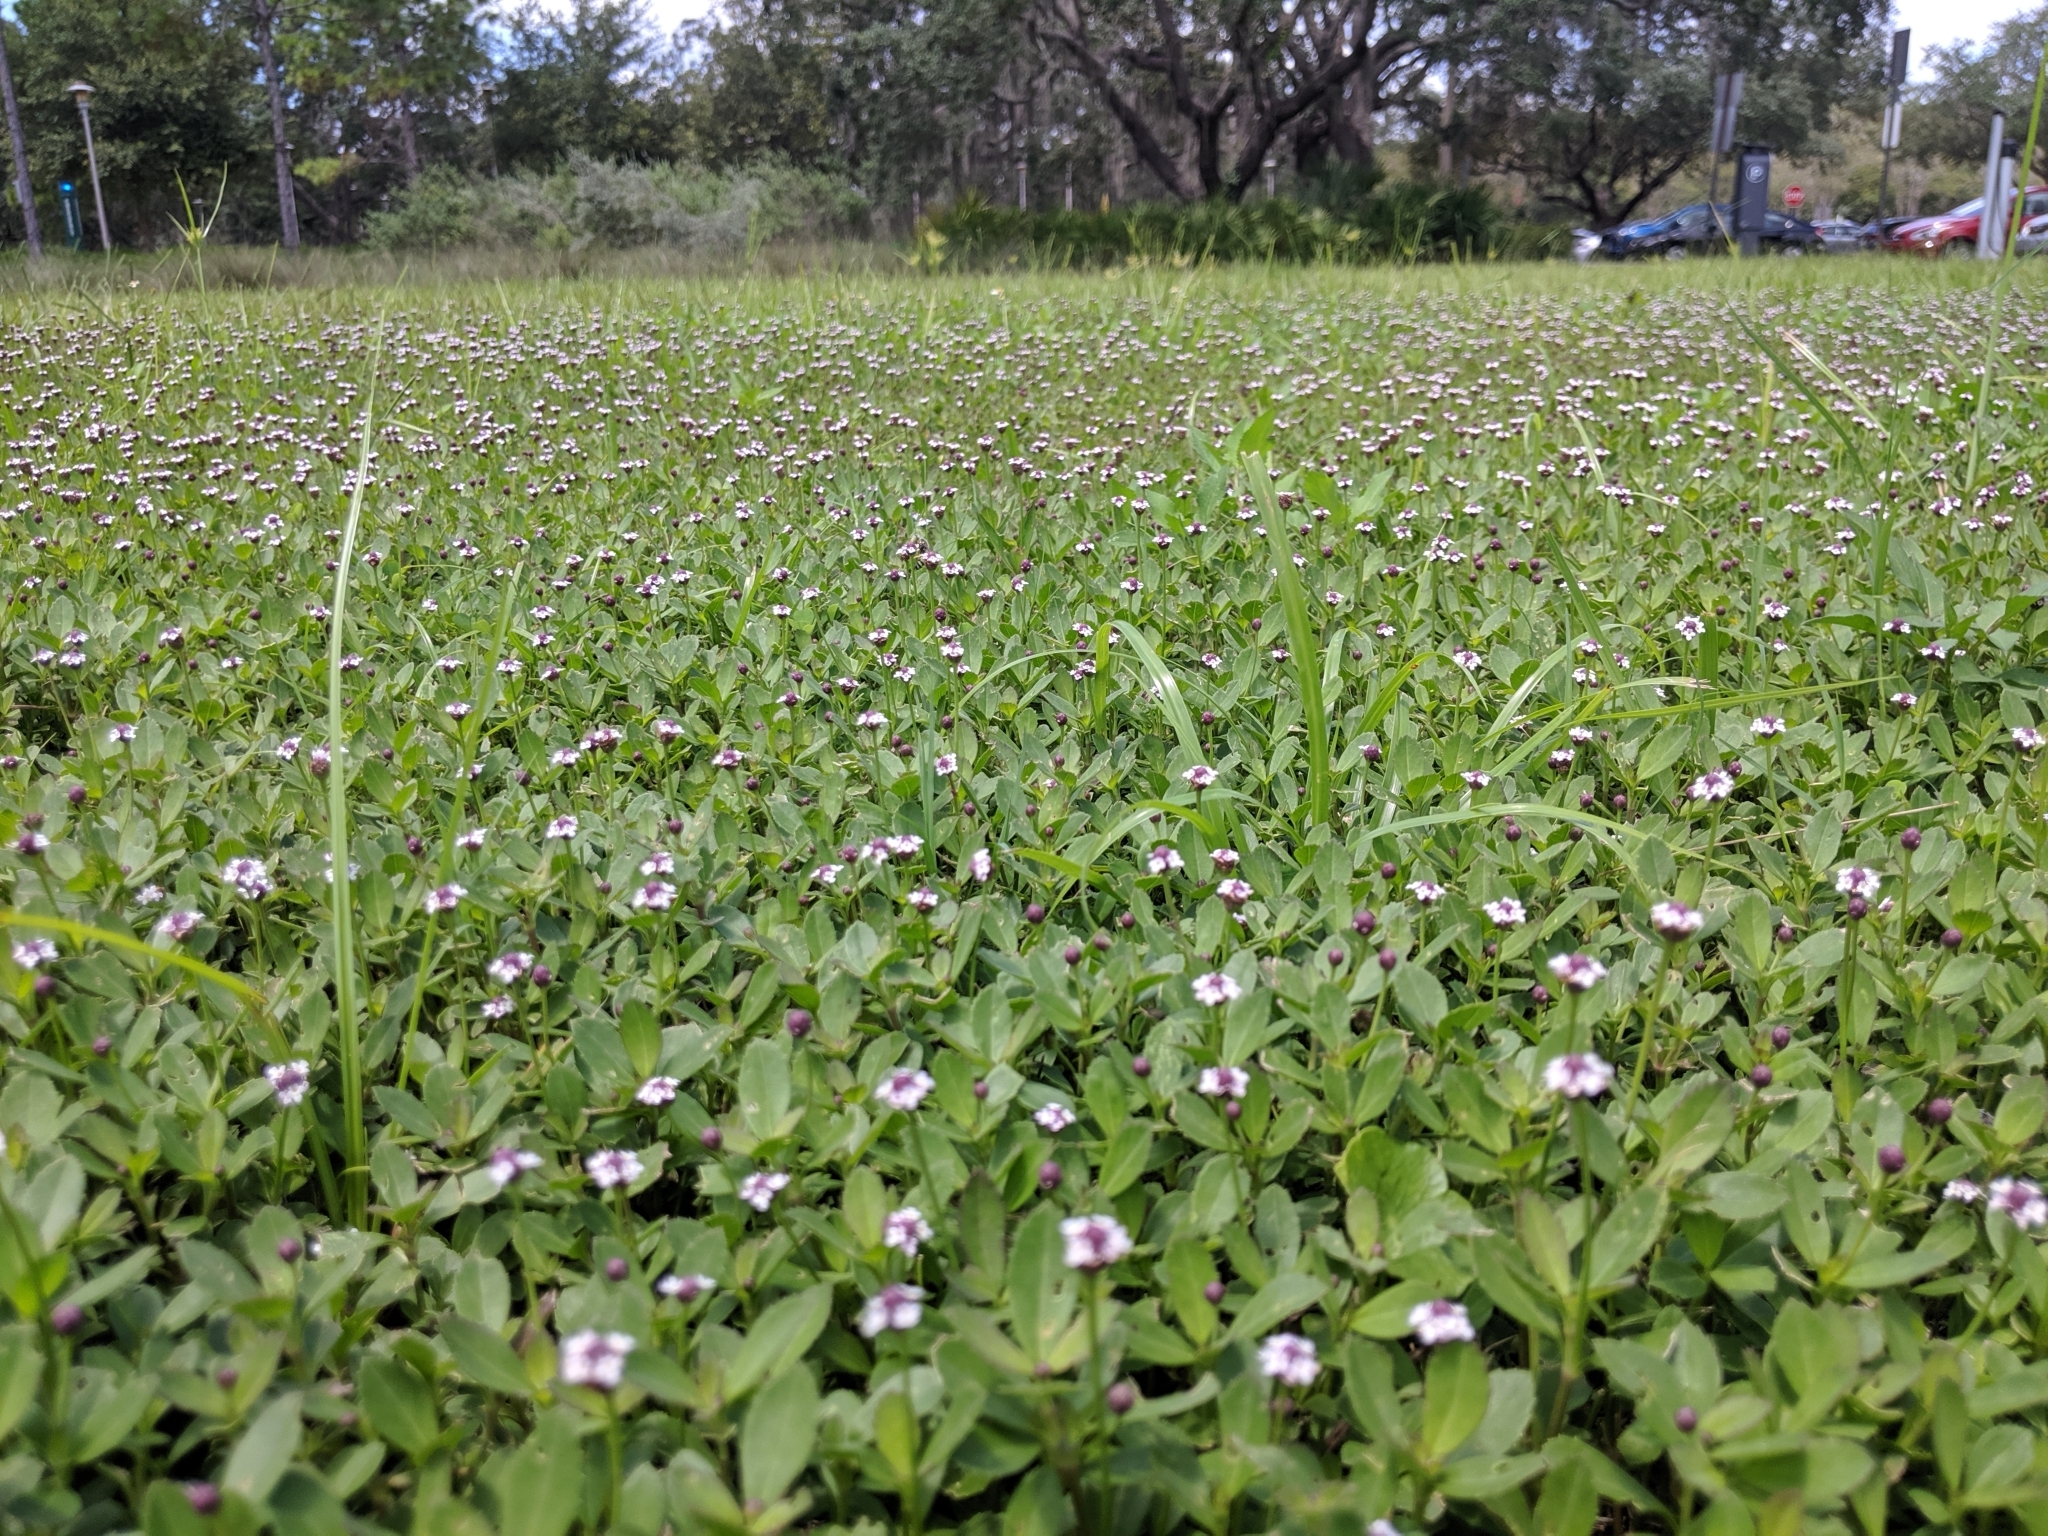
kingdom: Plantae
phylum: Tracheophyta
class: Magnoliopsida
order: Lamiales
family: Verbenaceae
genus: Phyla
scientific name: Phyla nodiflora
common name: Frogfruit
